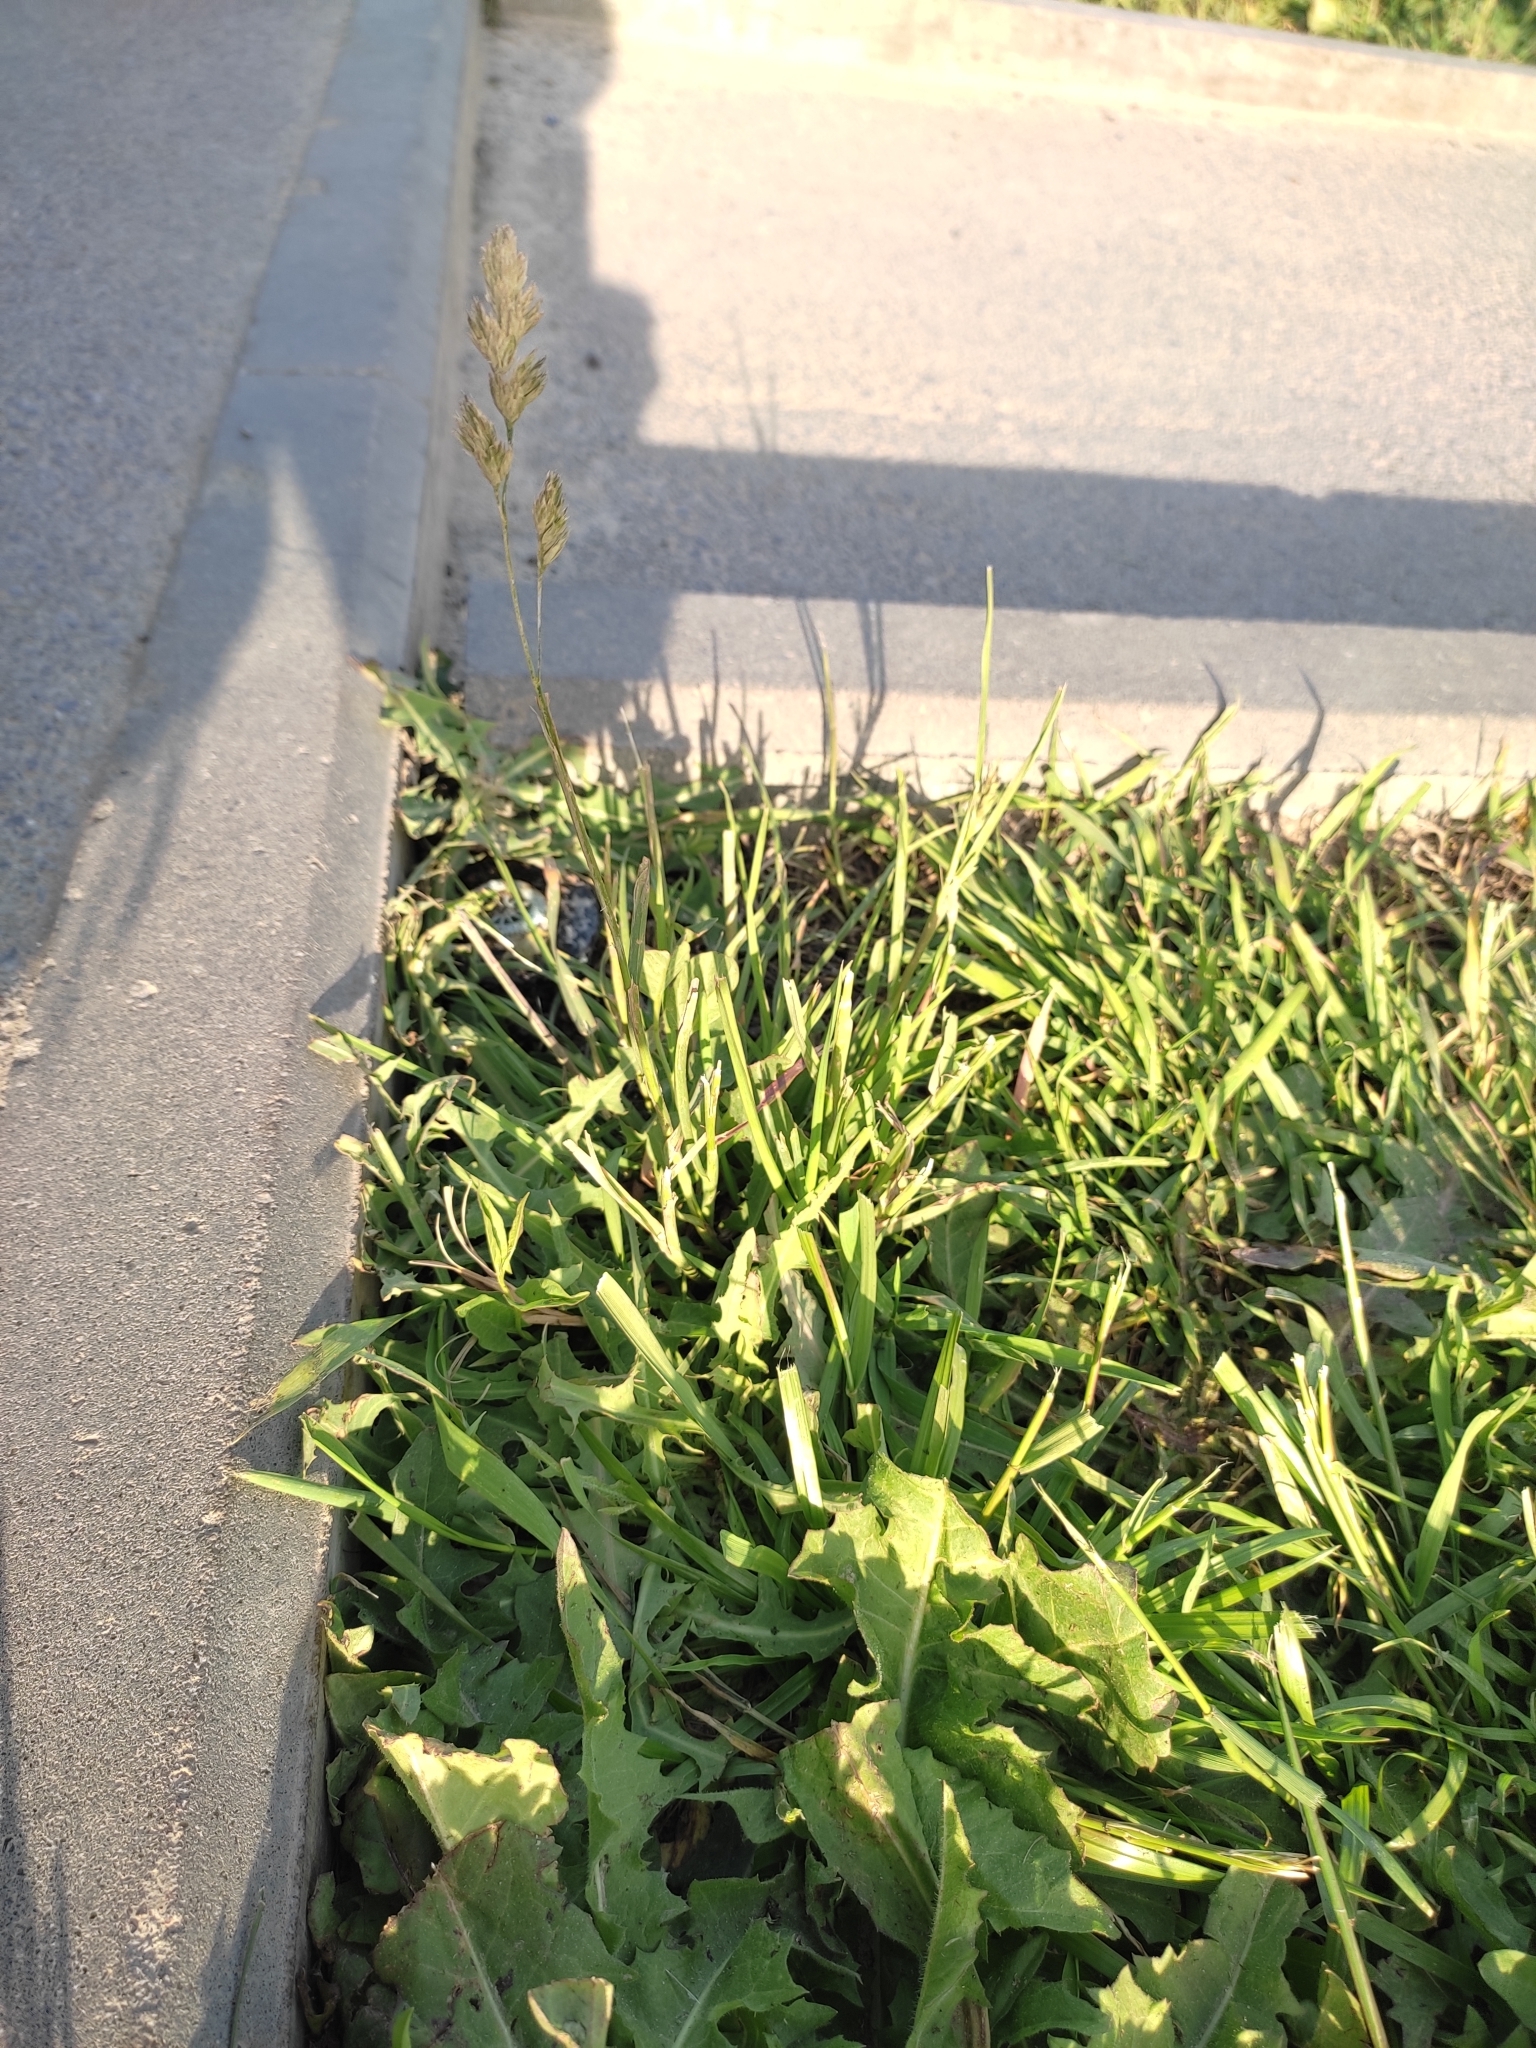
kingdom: Plantae
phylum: Tracheophyta
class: Liliopsida
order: Poales
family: Poaceae
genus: Dactylis
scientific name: Dactylis glomerata
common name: Orchardgrass
